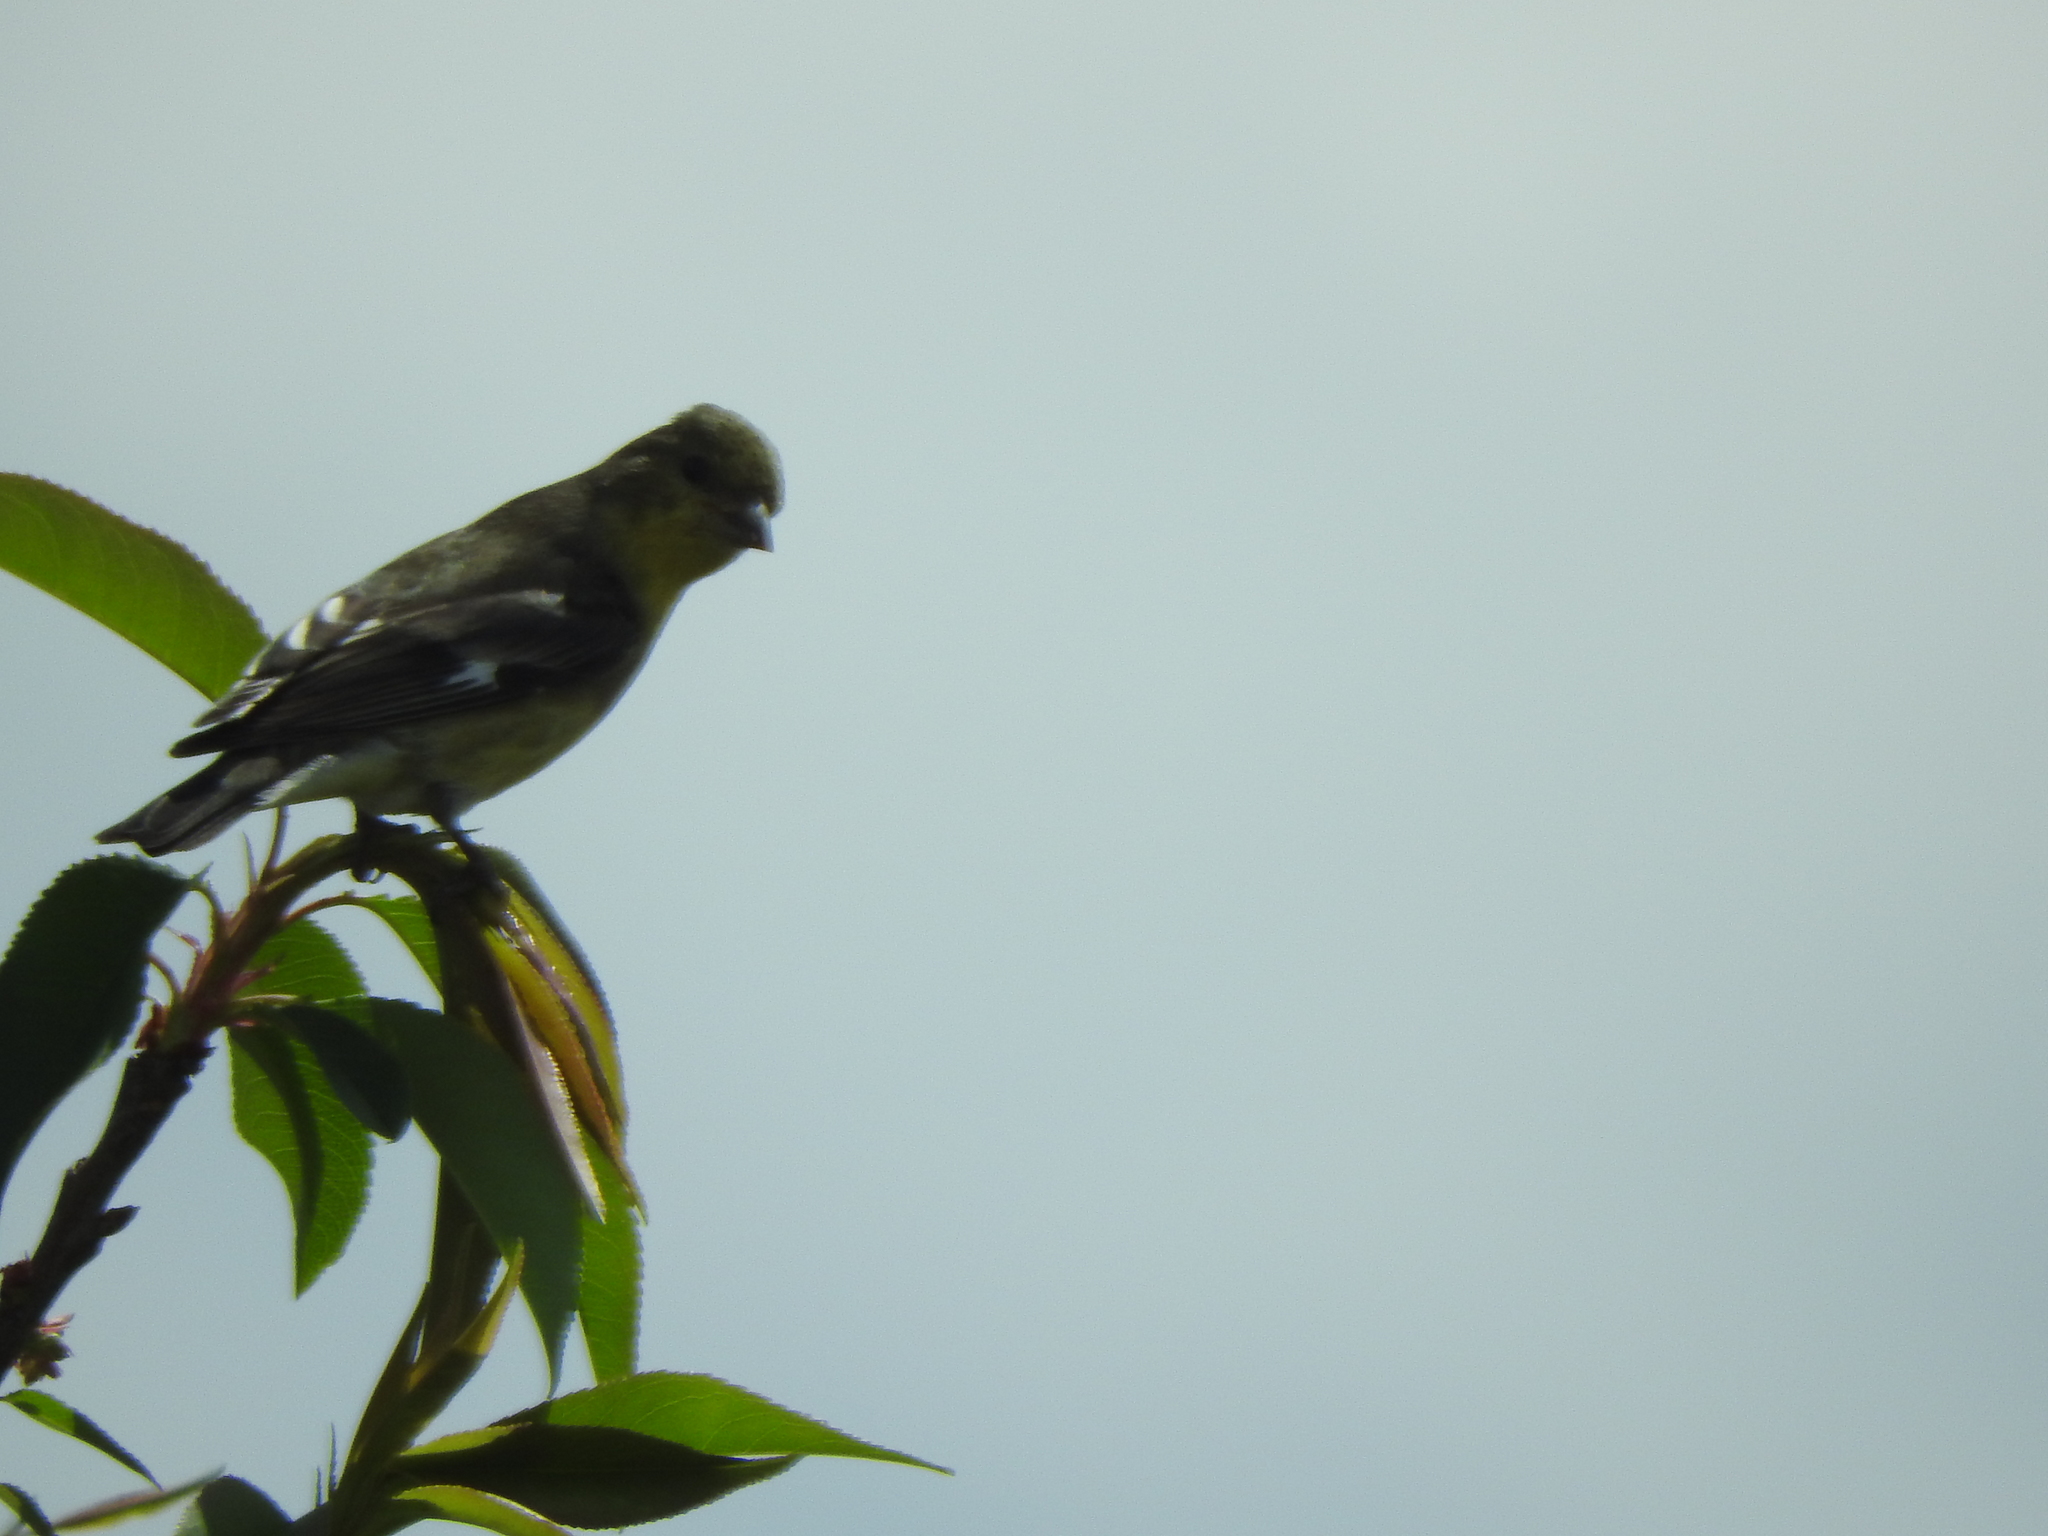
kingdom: Animalia
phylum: Chordata
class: Aves
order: Passeriformes
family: Fringillidae
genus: Spinus
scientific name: Spinus psaltria
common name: Lesser goldfinch
